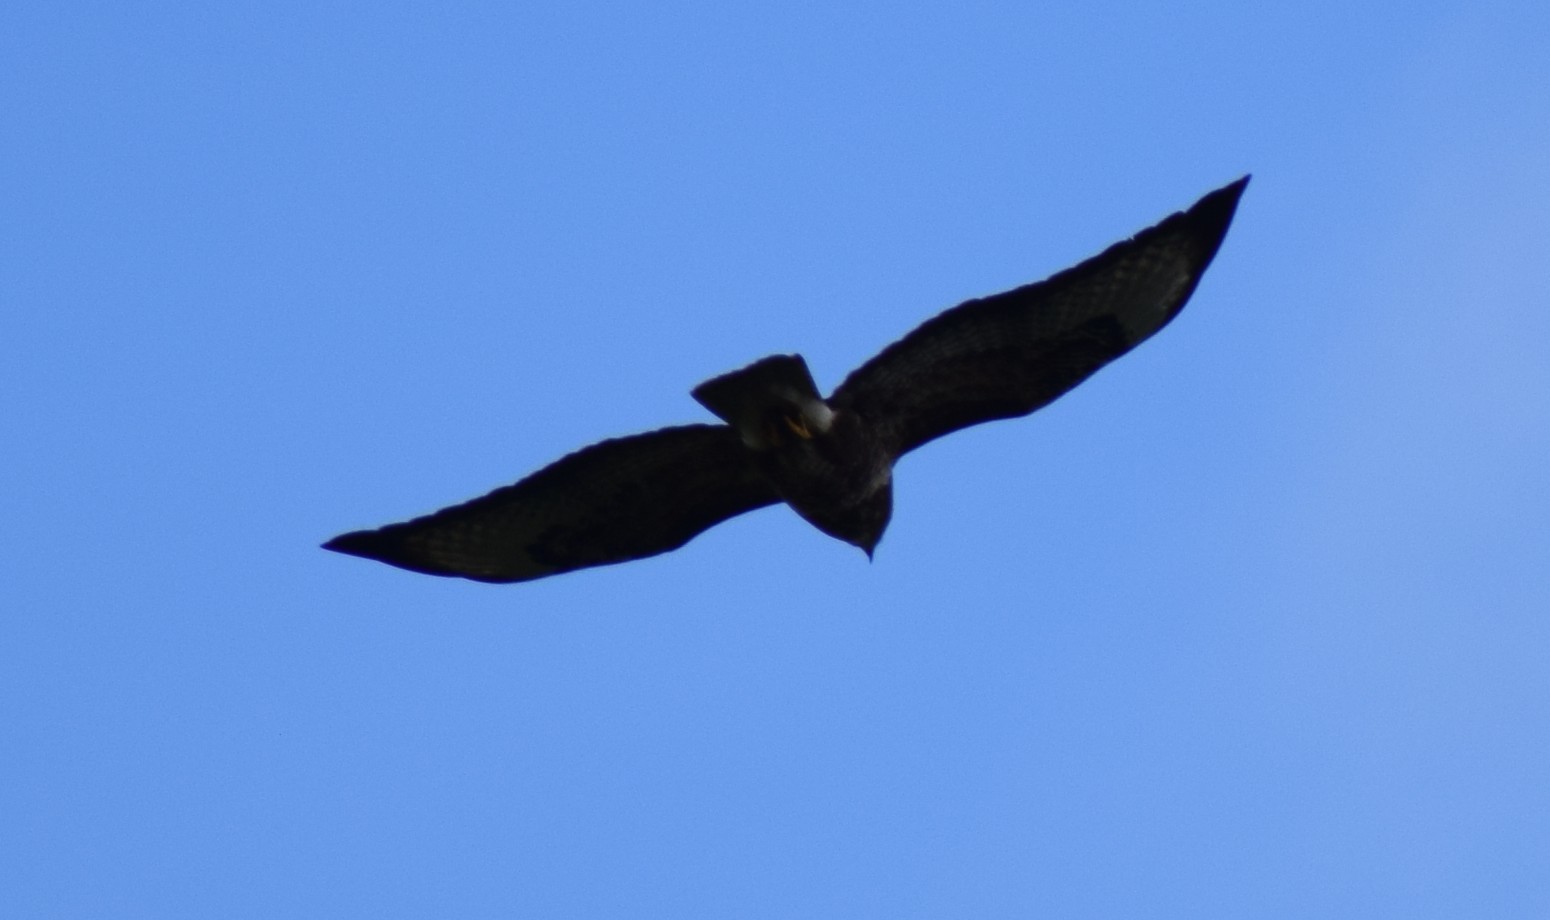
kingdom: Animalia
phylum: Chordata
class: Aves
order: Accipitriformes
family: Accipitridae
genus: Buteo
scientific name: Buteo buteo
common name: Common buzzard
